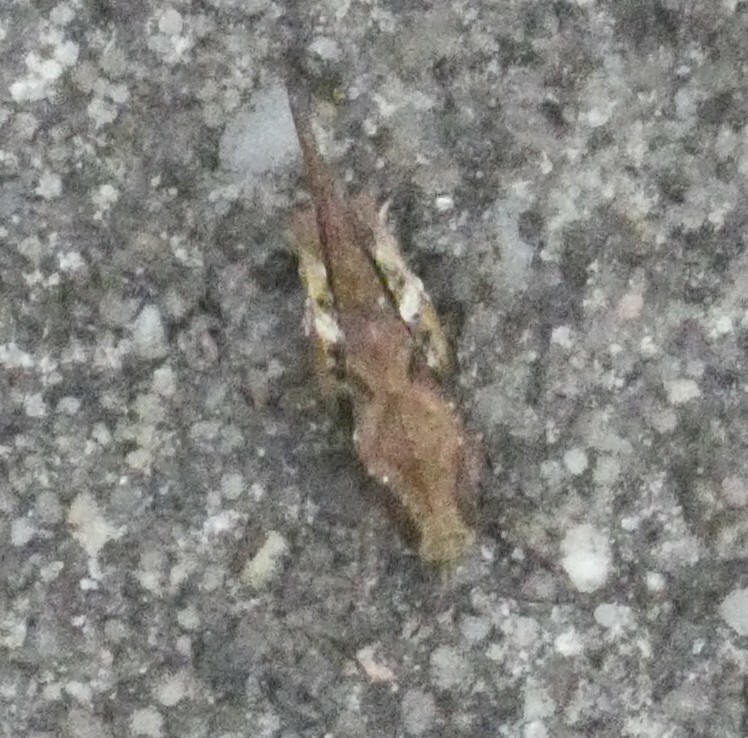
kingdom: Animalia
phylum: Arthropoda
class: Insecta
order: Orthoptera
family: Tetrigidae
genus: Tetrix
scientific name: Tetrix subulata
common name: Slender ground-hopper
